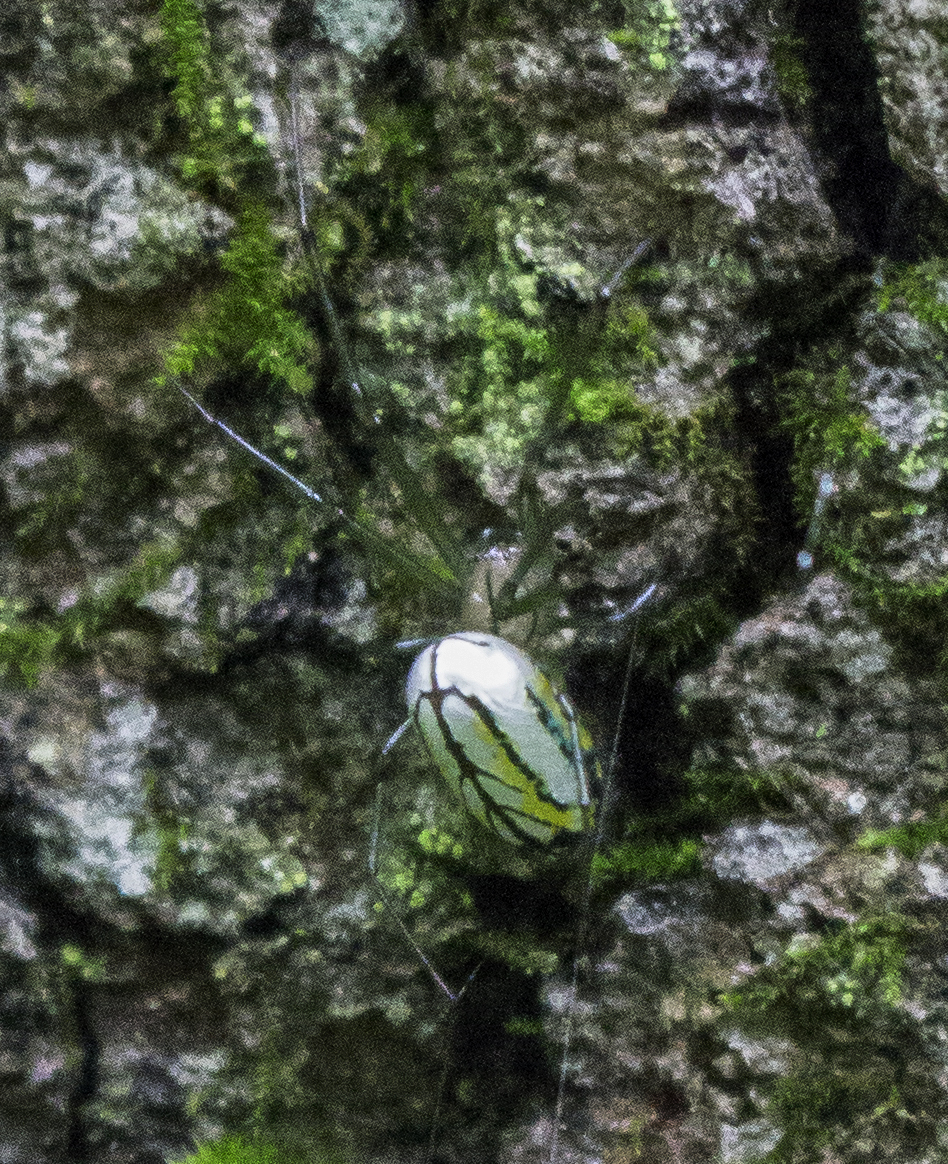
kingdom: Animalia
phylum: Arthropoda
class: Arachnida
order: Araneae
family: Tetragnathidae
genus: Leucauge
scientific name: Leucauge venusta
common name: Longjawed orb weavers
